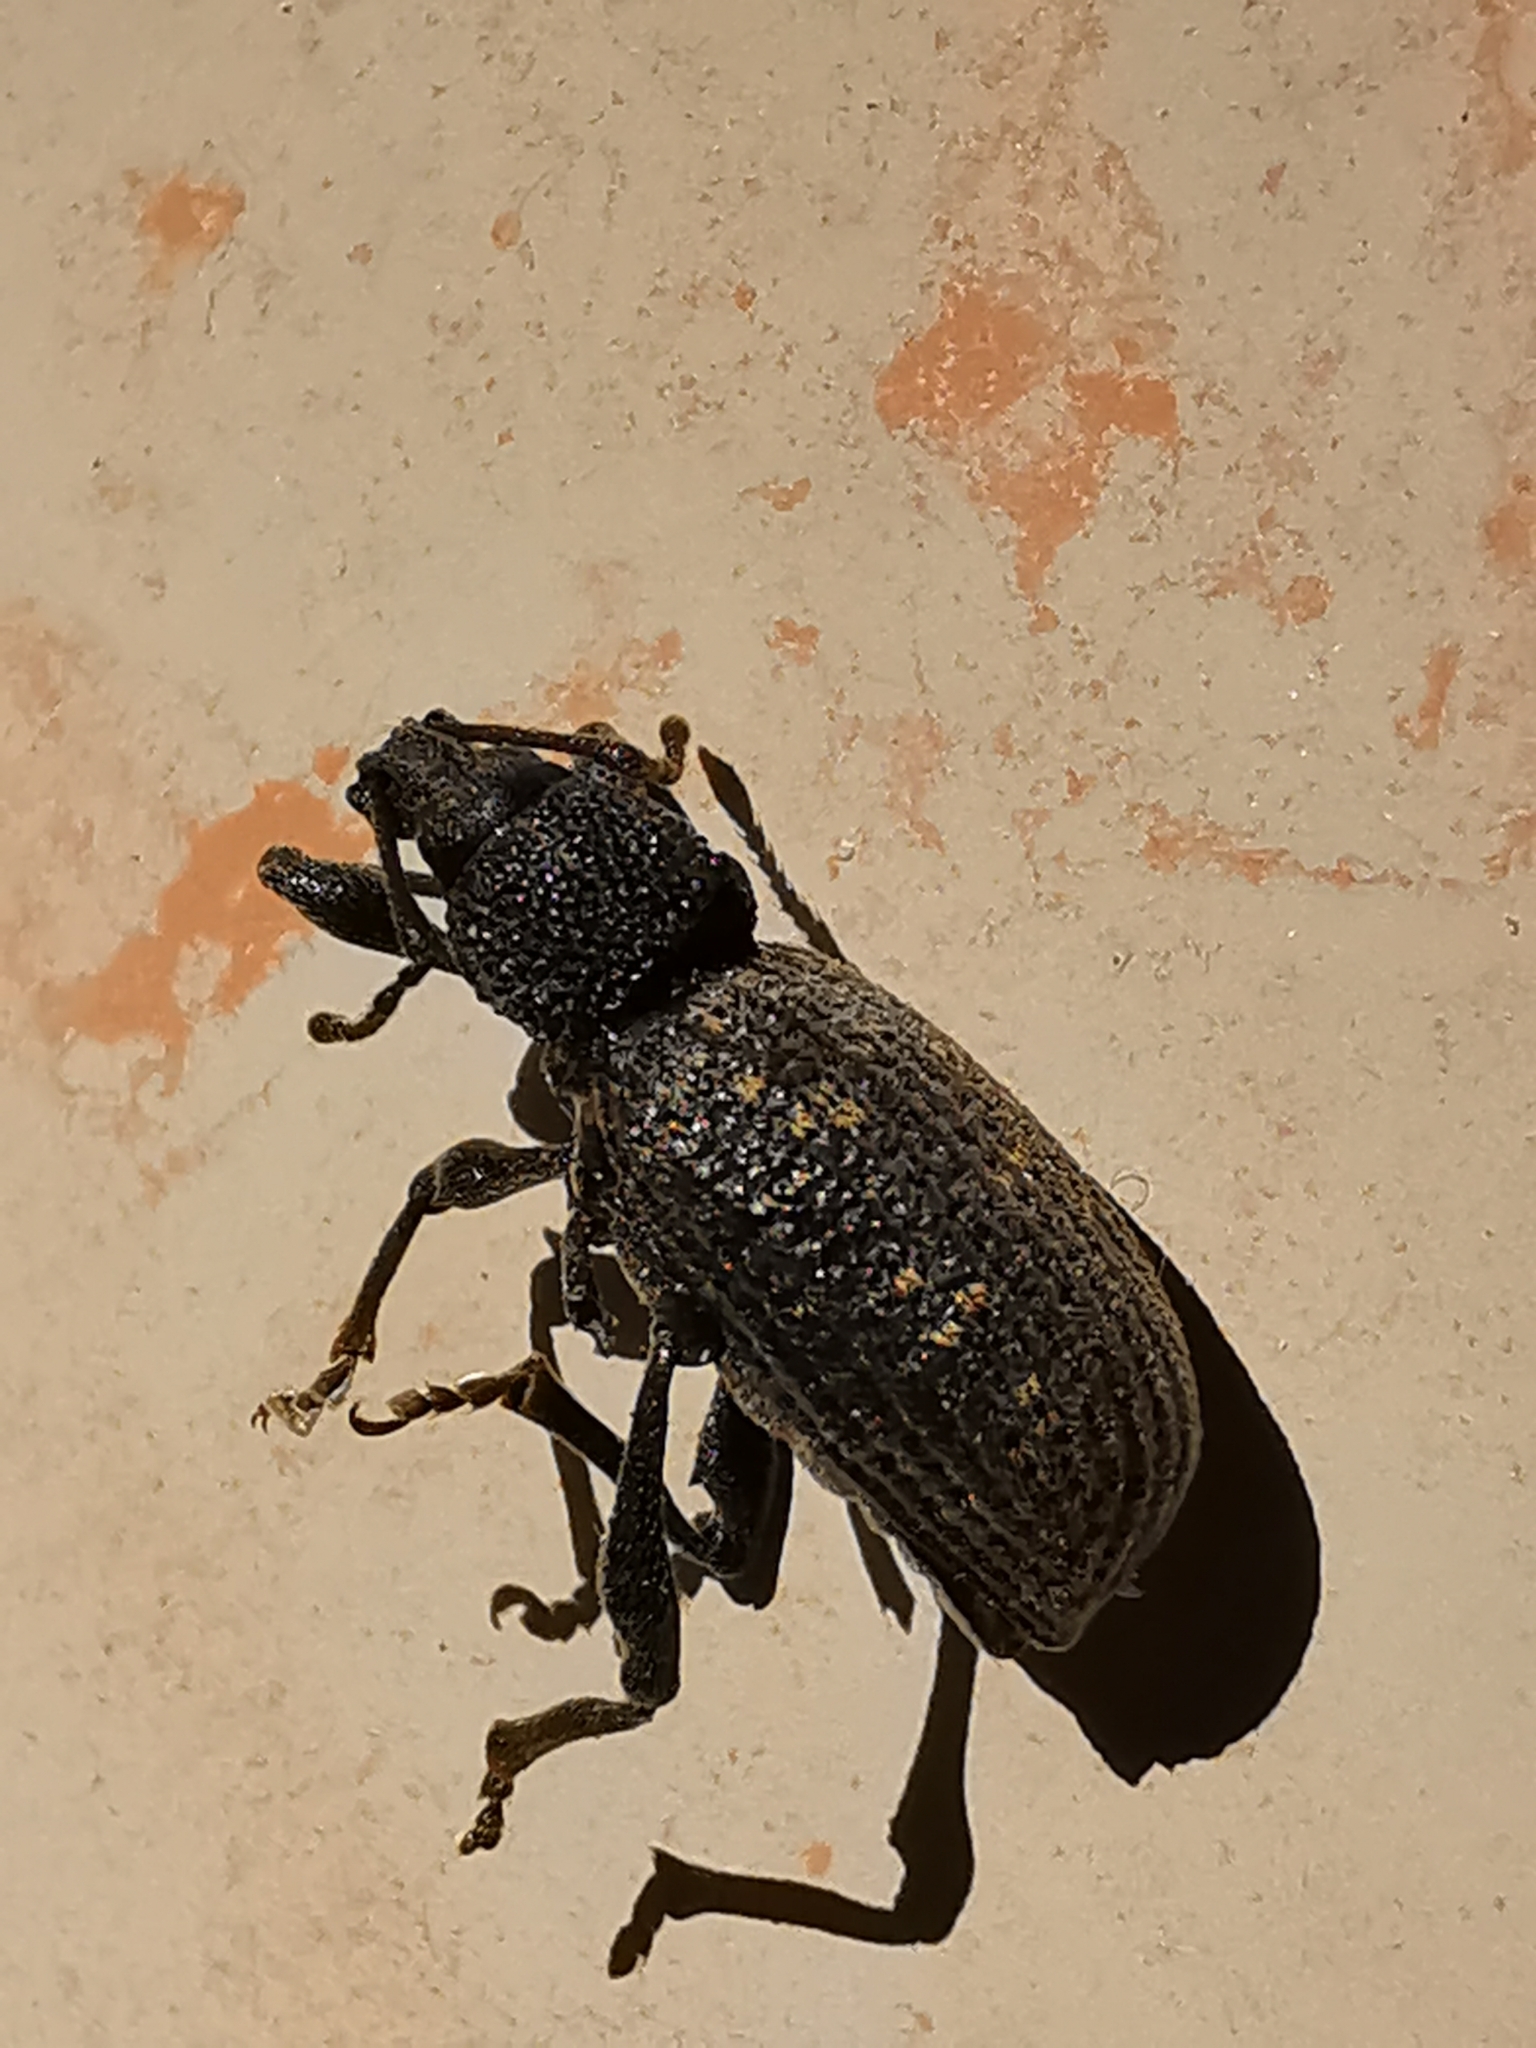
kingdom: Animalia
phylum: Arthropoda
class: Insecta
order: Coleoptera
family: Curculionidae
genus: Otiorhynchus
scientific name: Otiorhynchus sulcatus
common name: Black vine weevil
